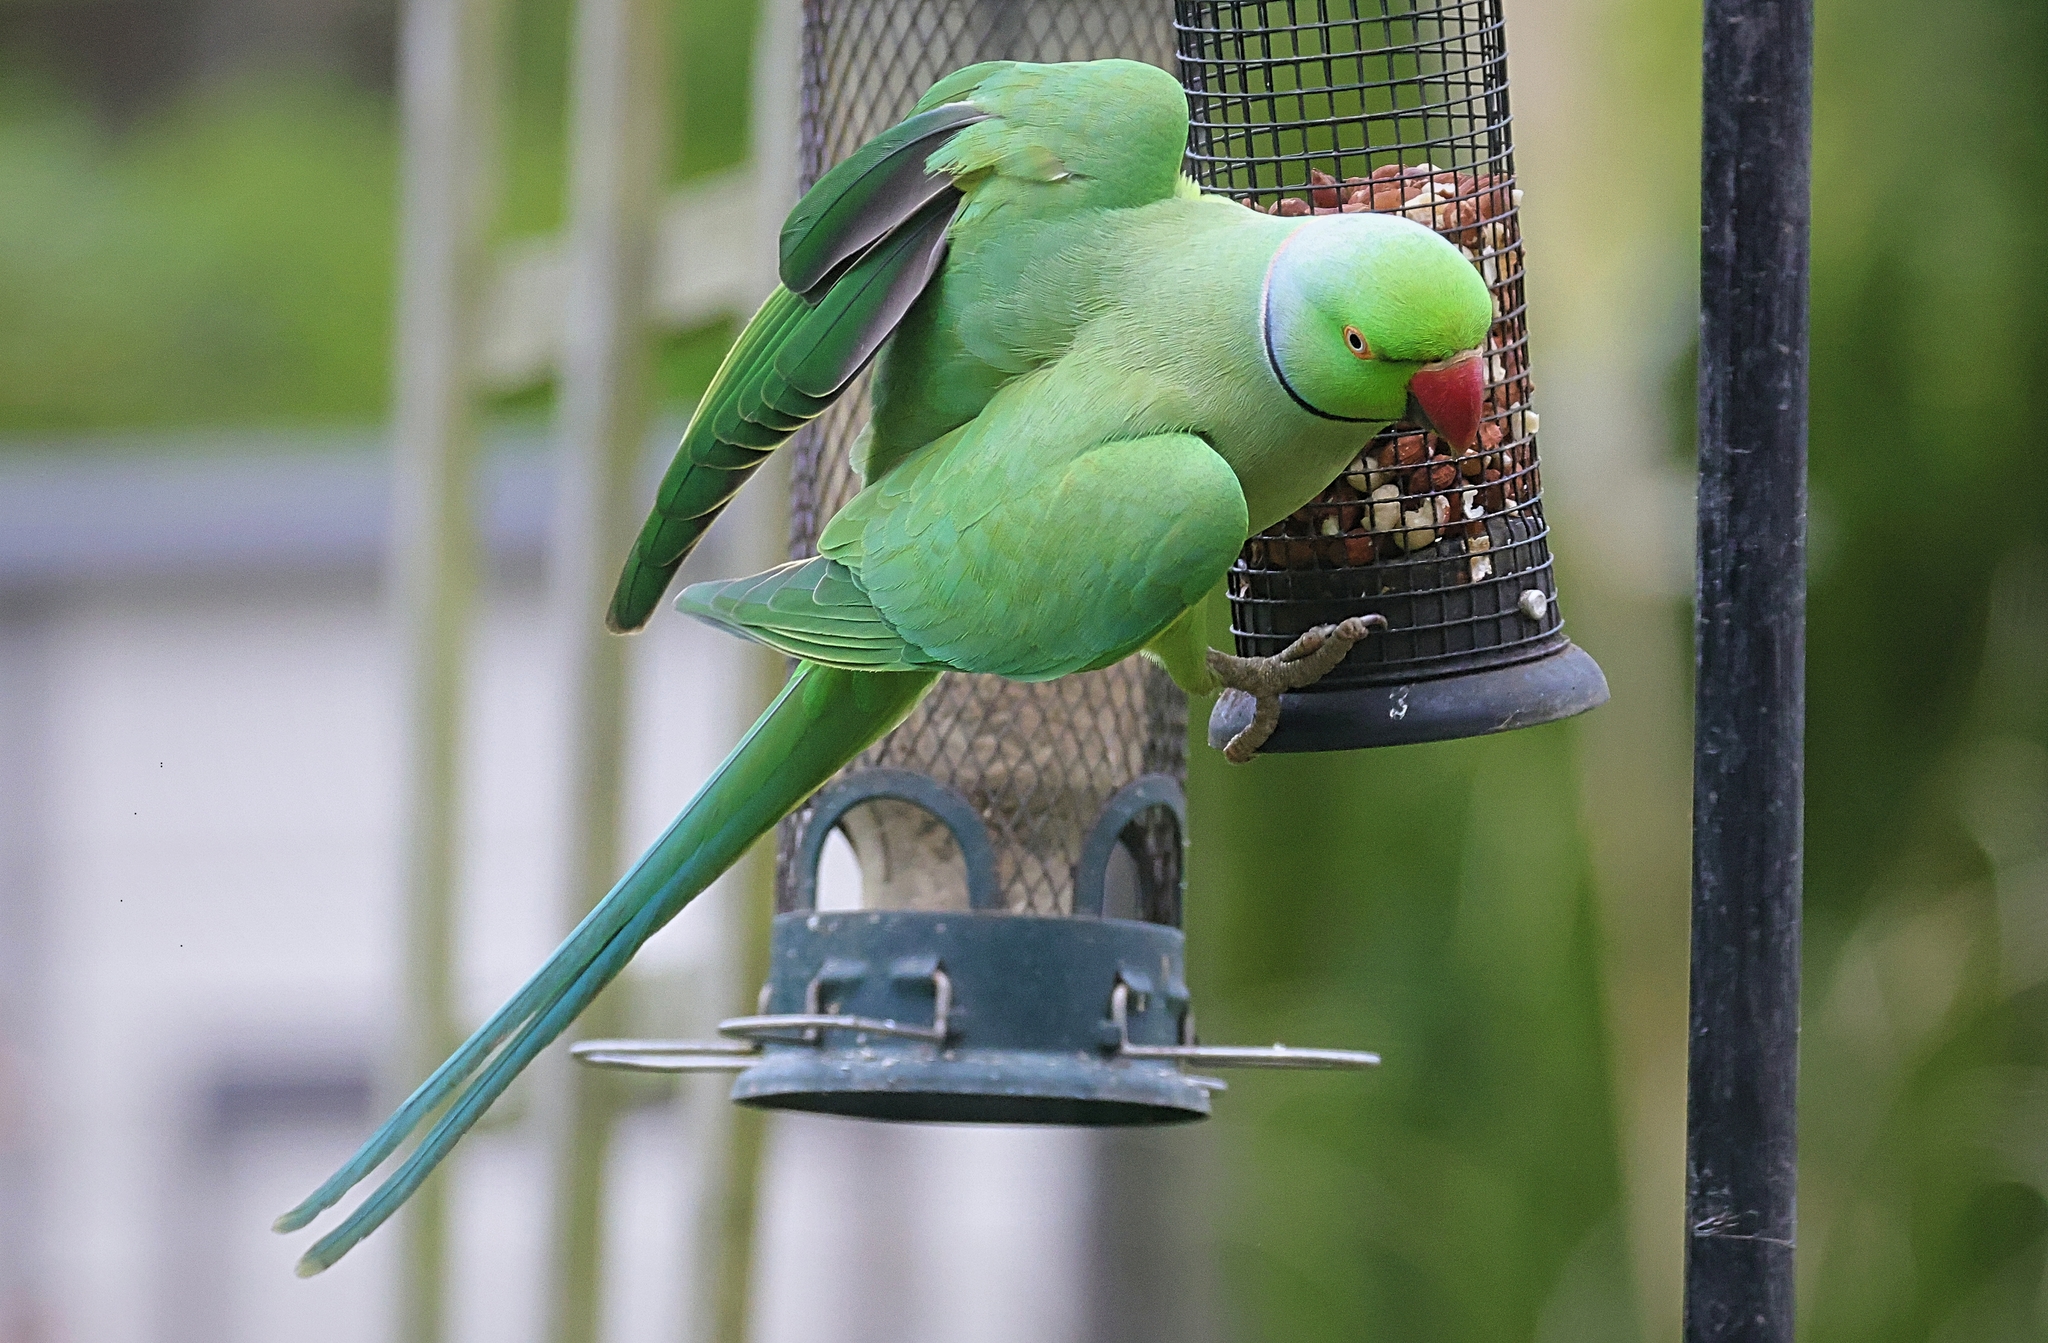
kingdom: Animalia
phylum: Chordata
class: Aves
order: Psittaciformes
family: Psittacidae
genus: Psittacula
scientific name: Psittacula krameri
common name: Rose-ringed parakeet
